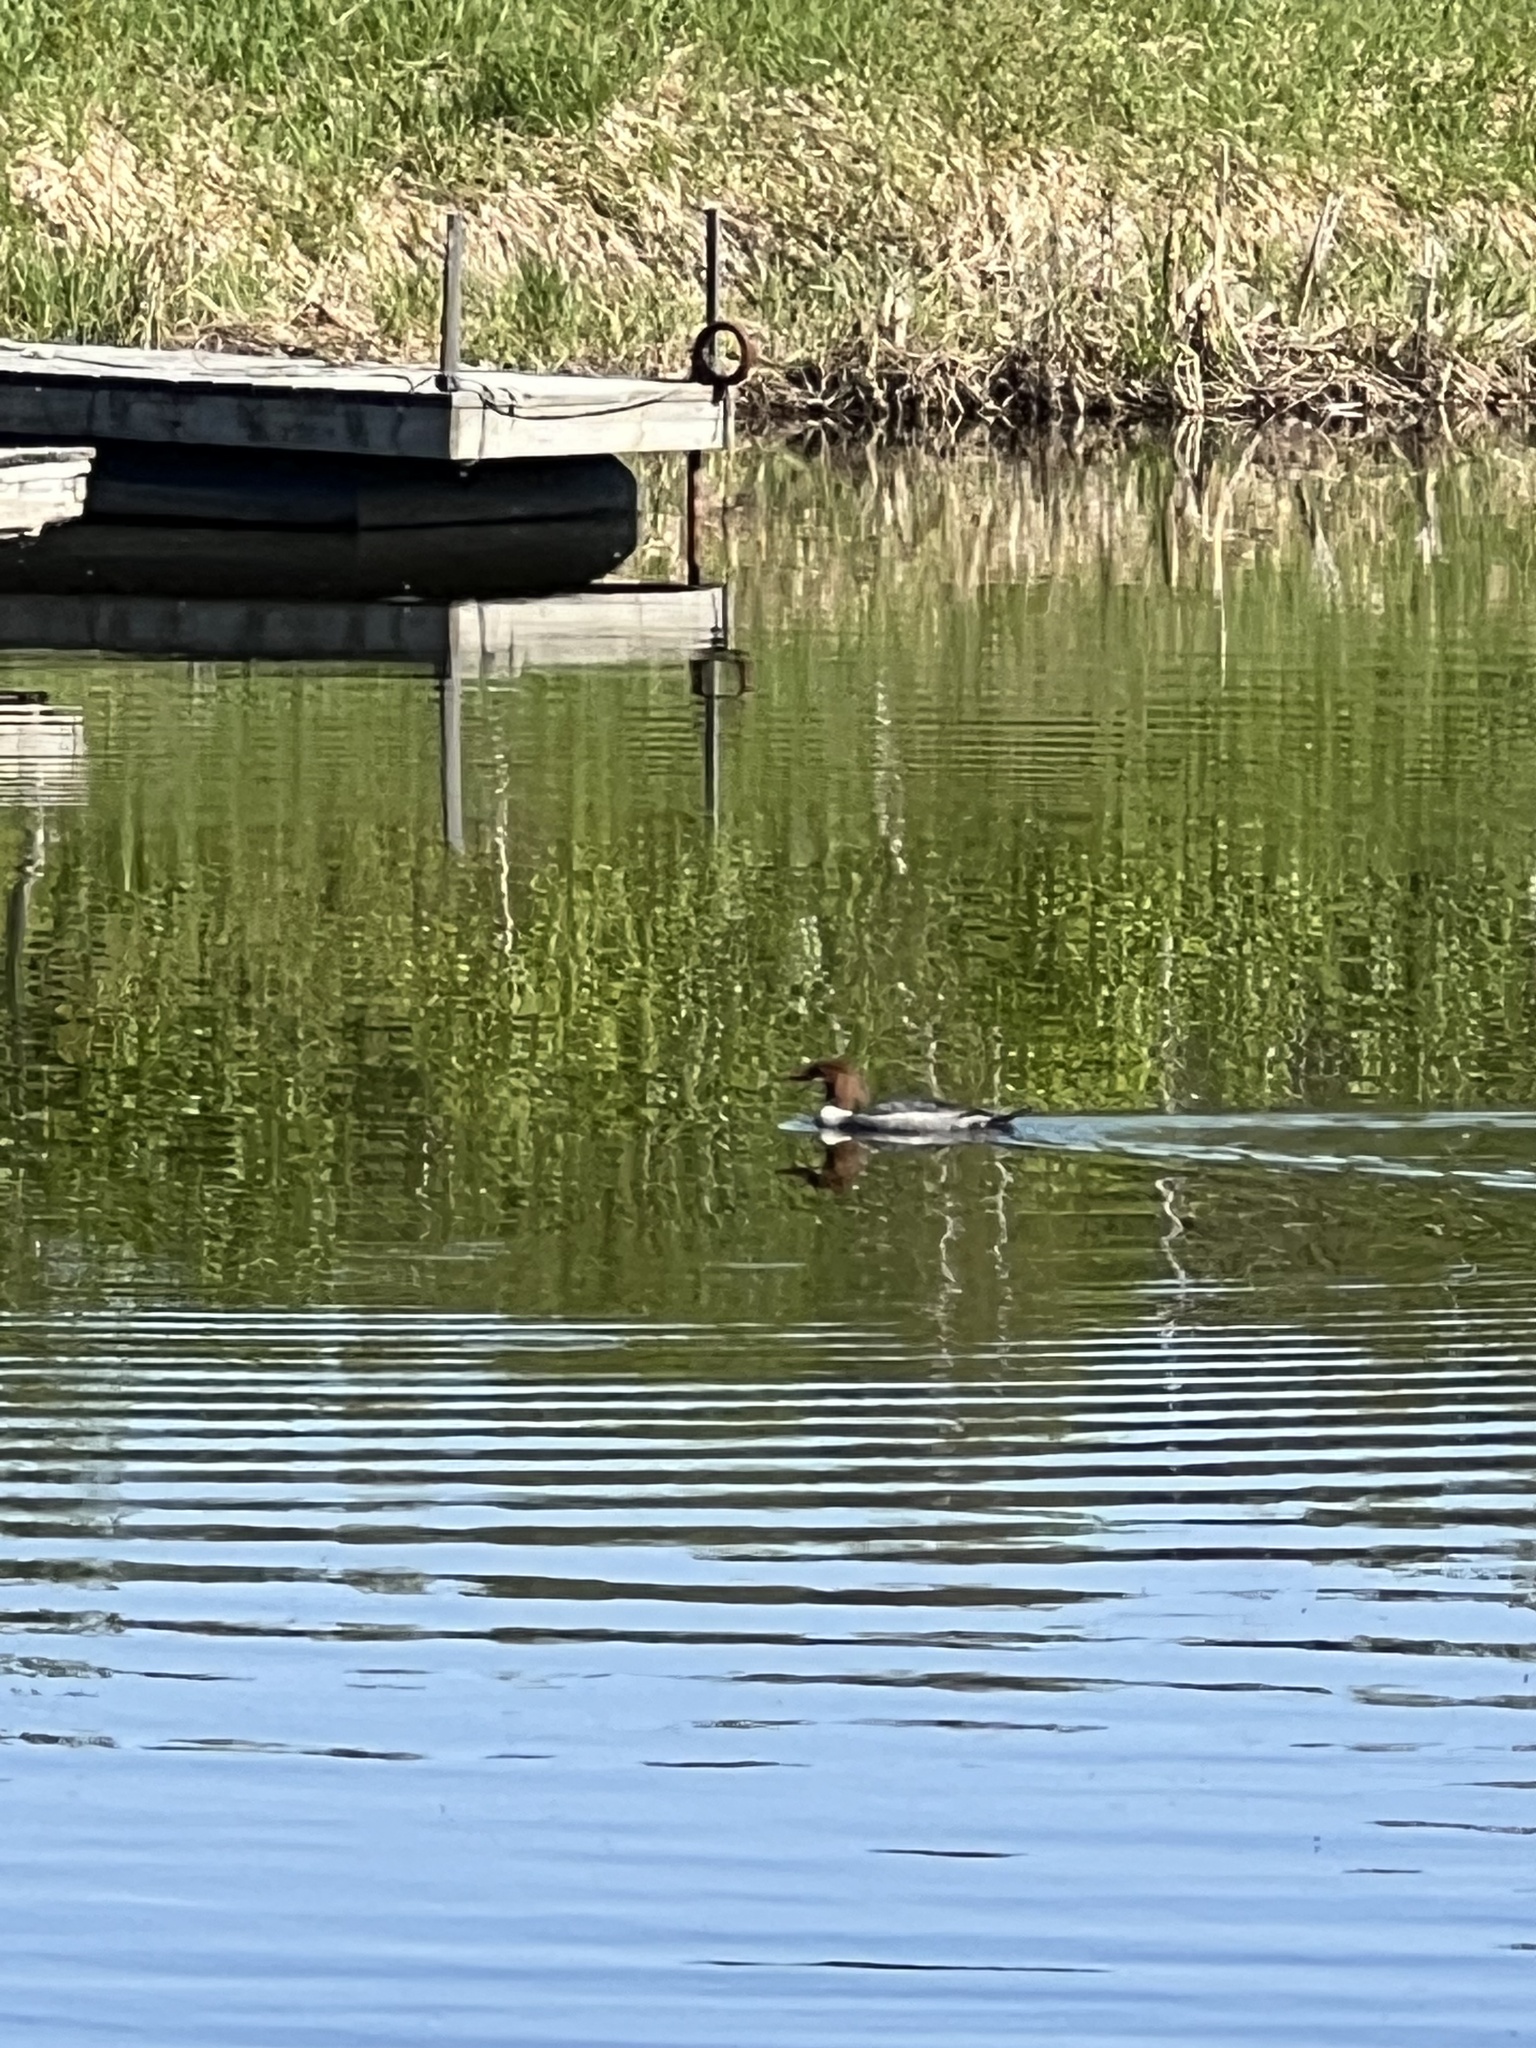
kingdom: Animalia
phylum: Chordata
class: Aves
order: Anseriformes
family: Anatidae
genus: Mergus
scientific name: Mergus merganser
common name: Common merganser
